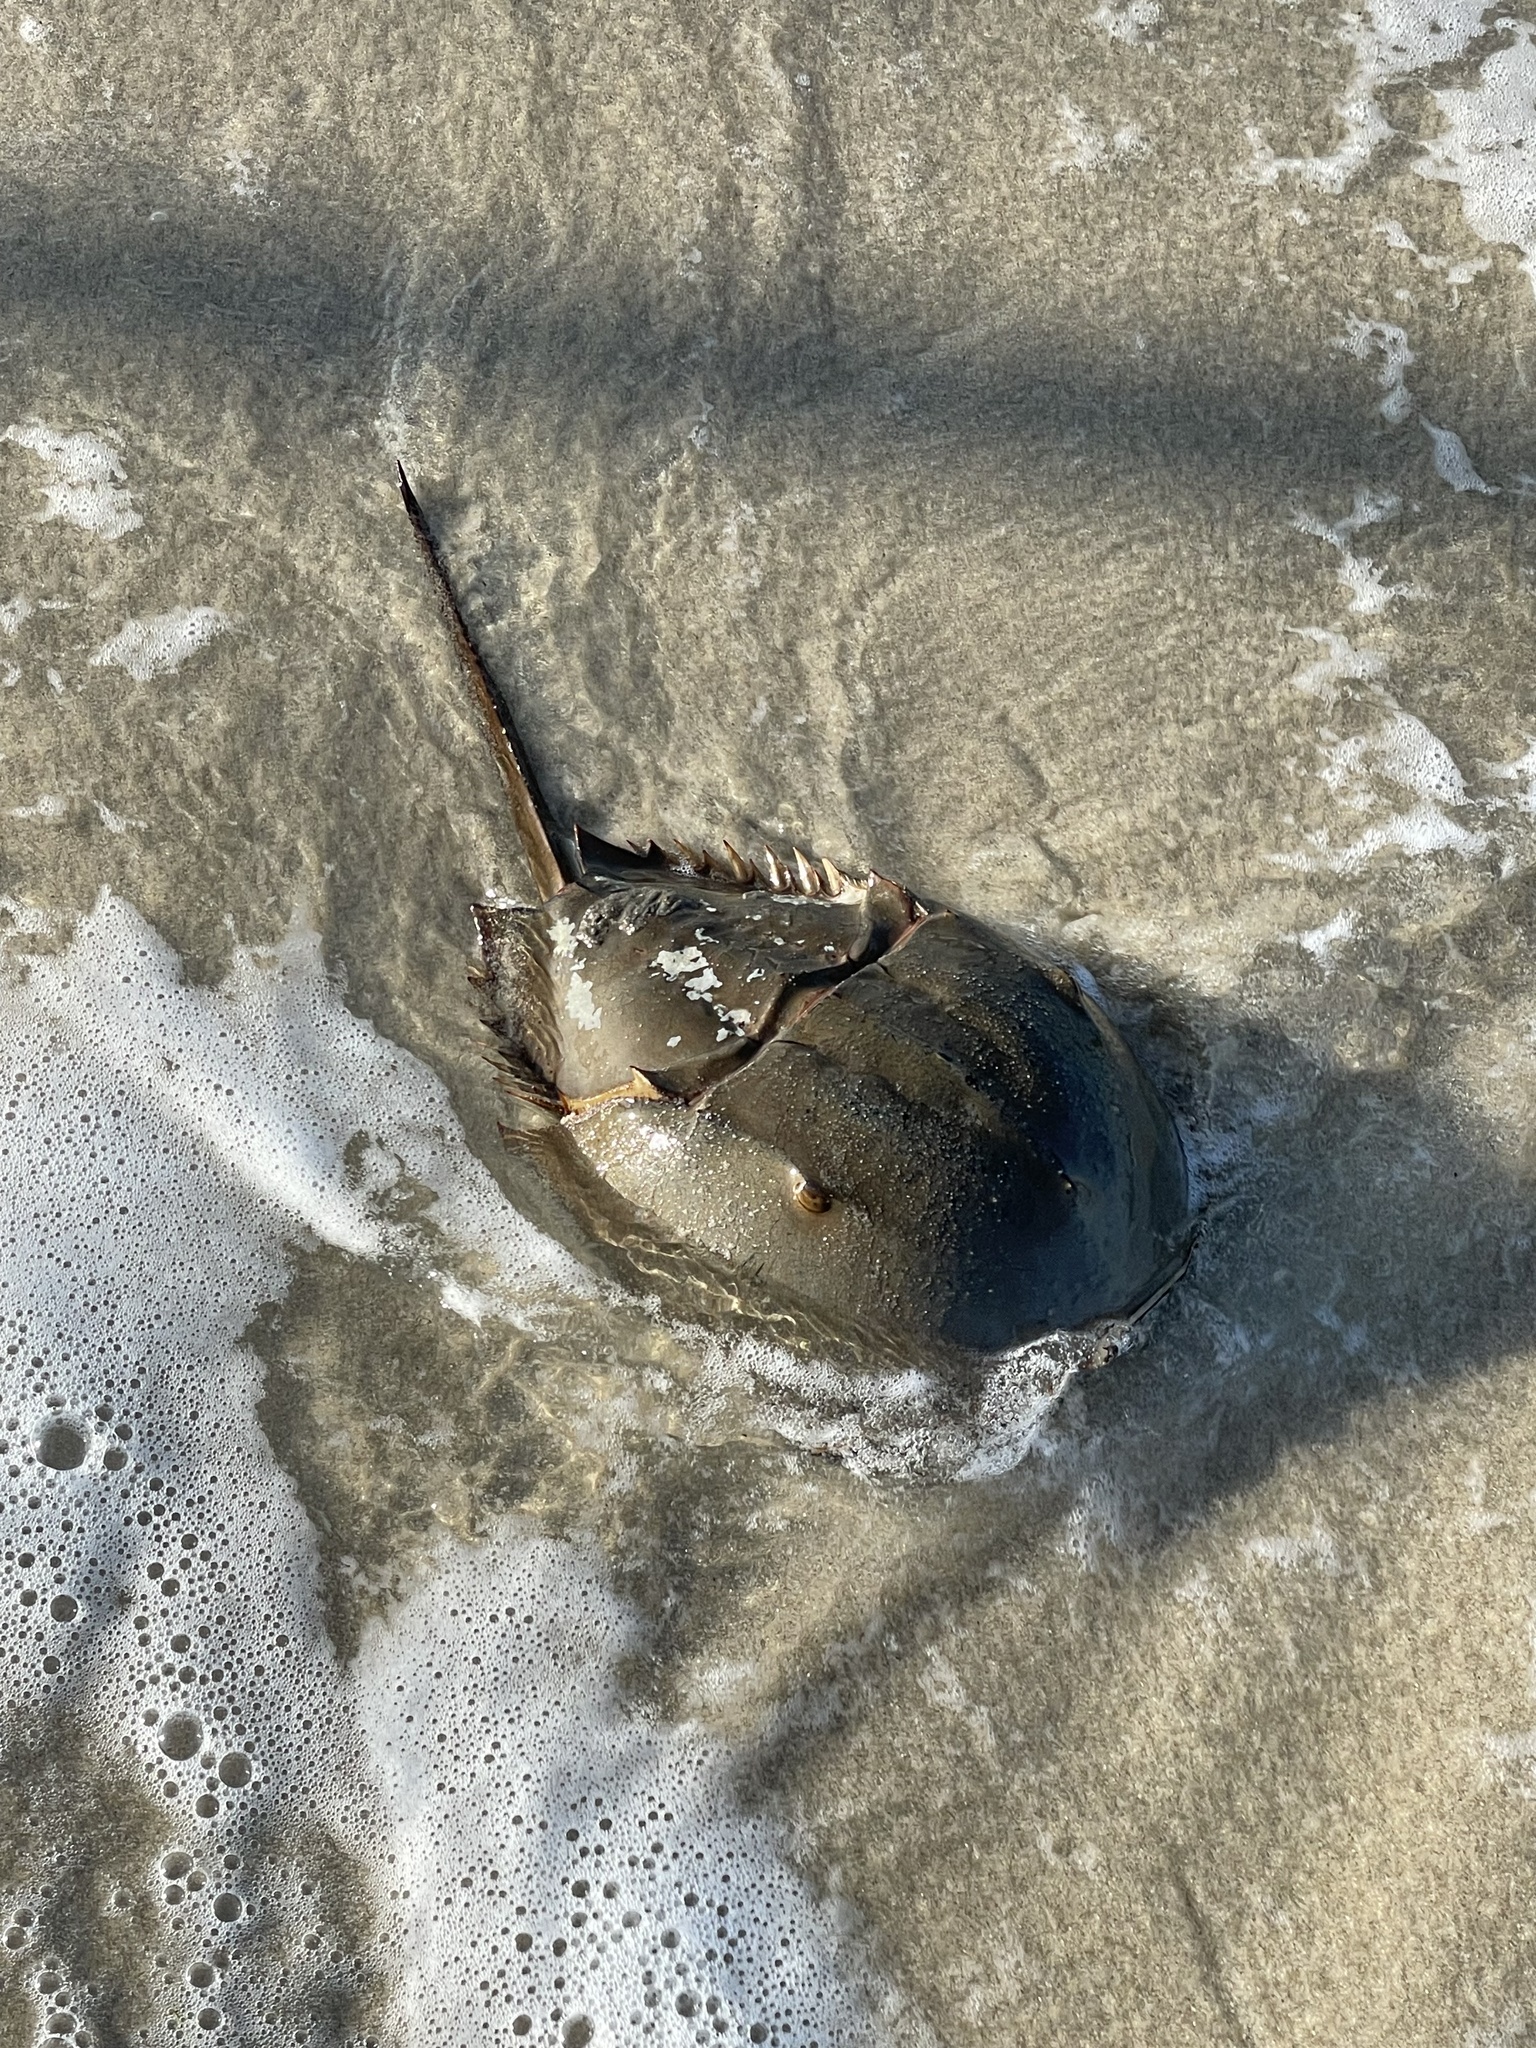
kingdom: Animalia
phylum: Arthropoda
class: Merostomata
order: Xiphosurida
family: Limulidae
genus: Limulus
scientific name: Limulus polyphemus
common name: Horseshoe crab
